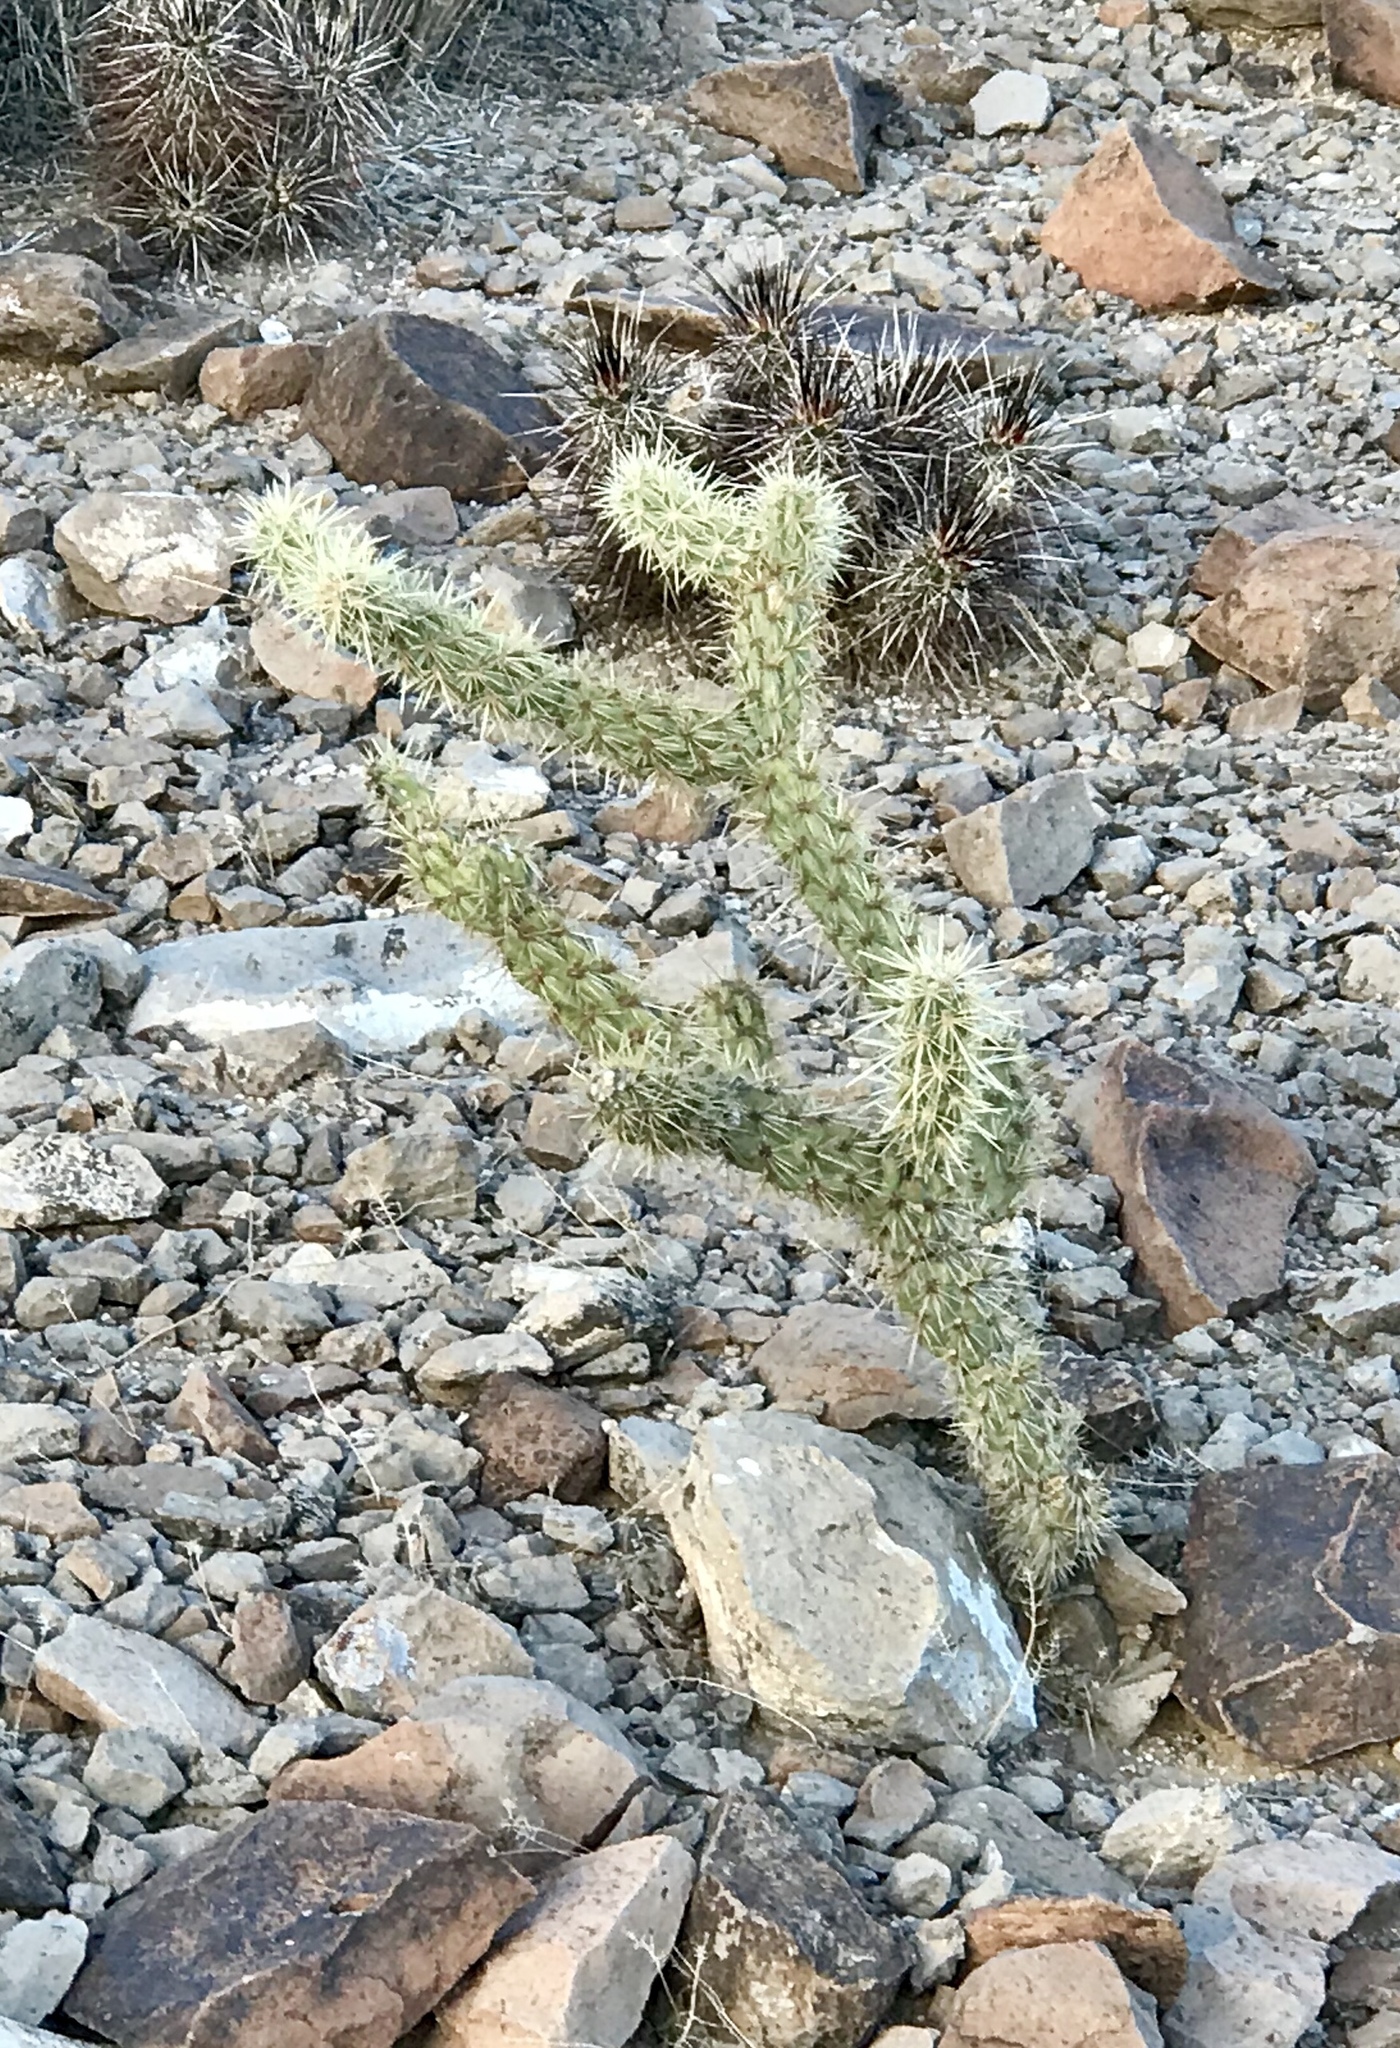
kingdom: Plantae
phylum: Tracheophyta
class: Magnoliopsida
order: Caryophyllales
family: Cactaceae
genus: Cylindropuntia
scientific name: Cylindropuntia acanthocarpa
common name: Buckhorn cholla
